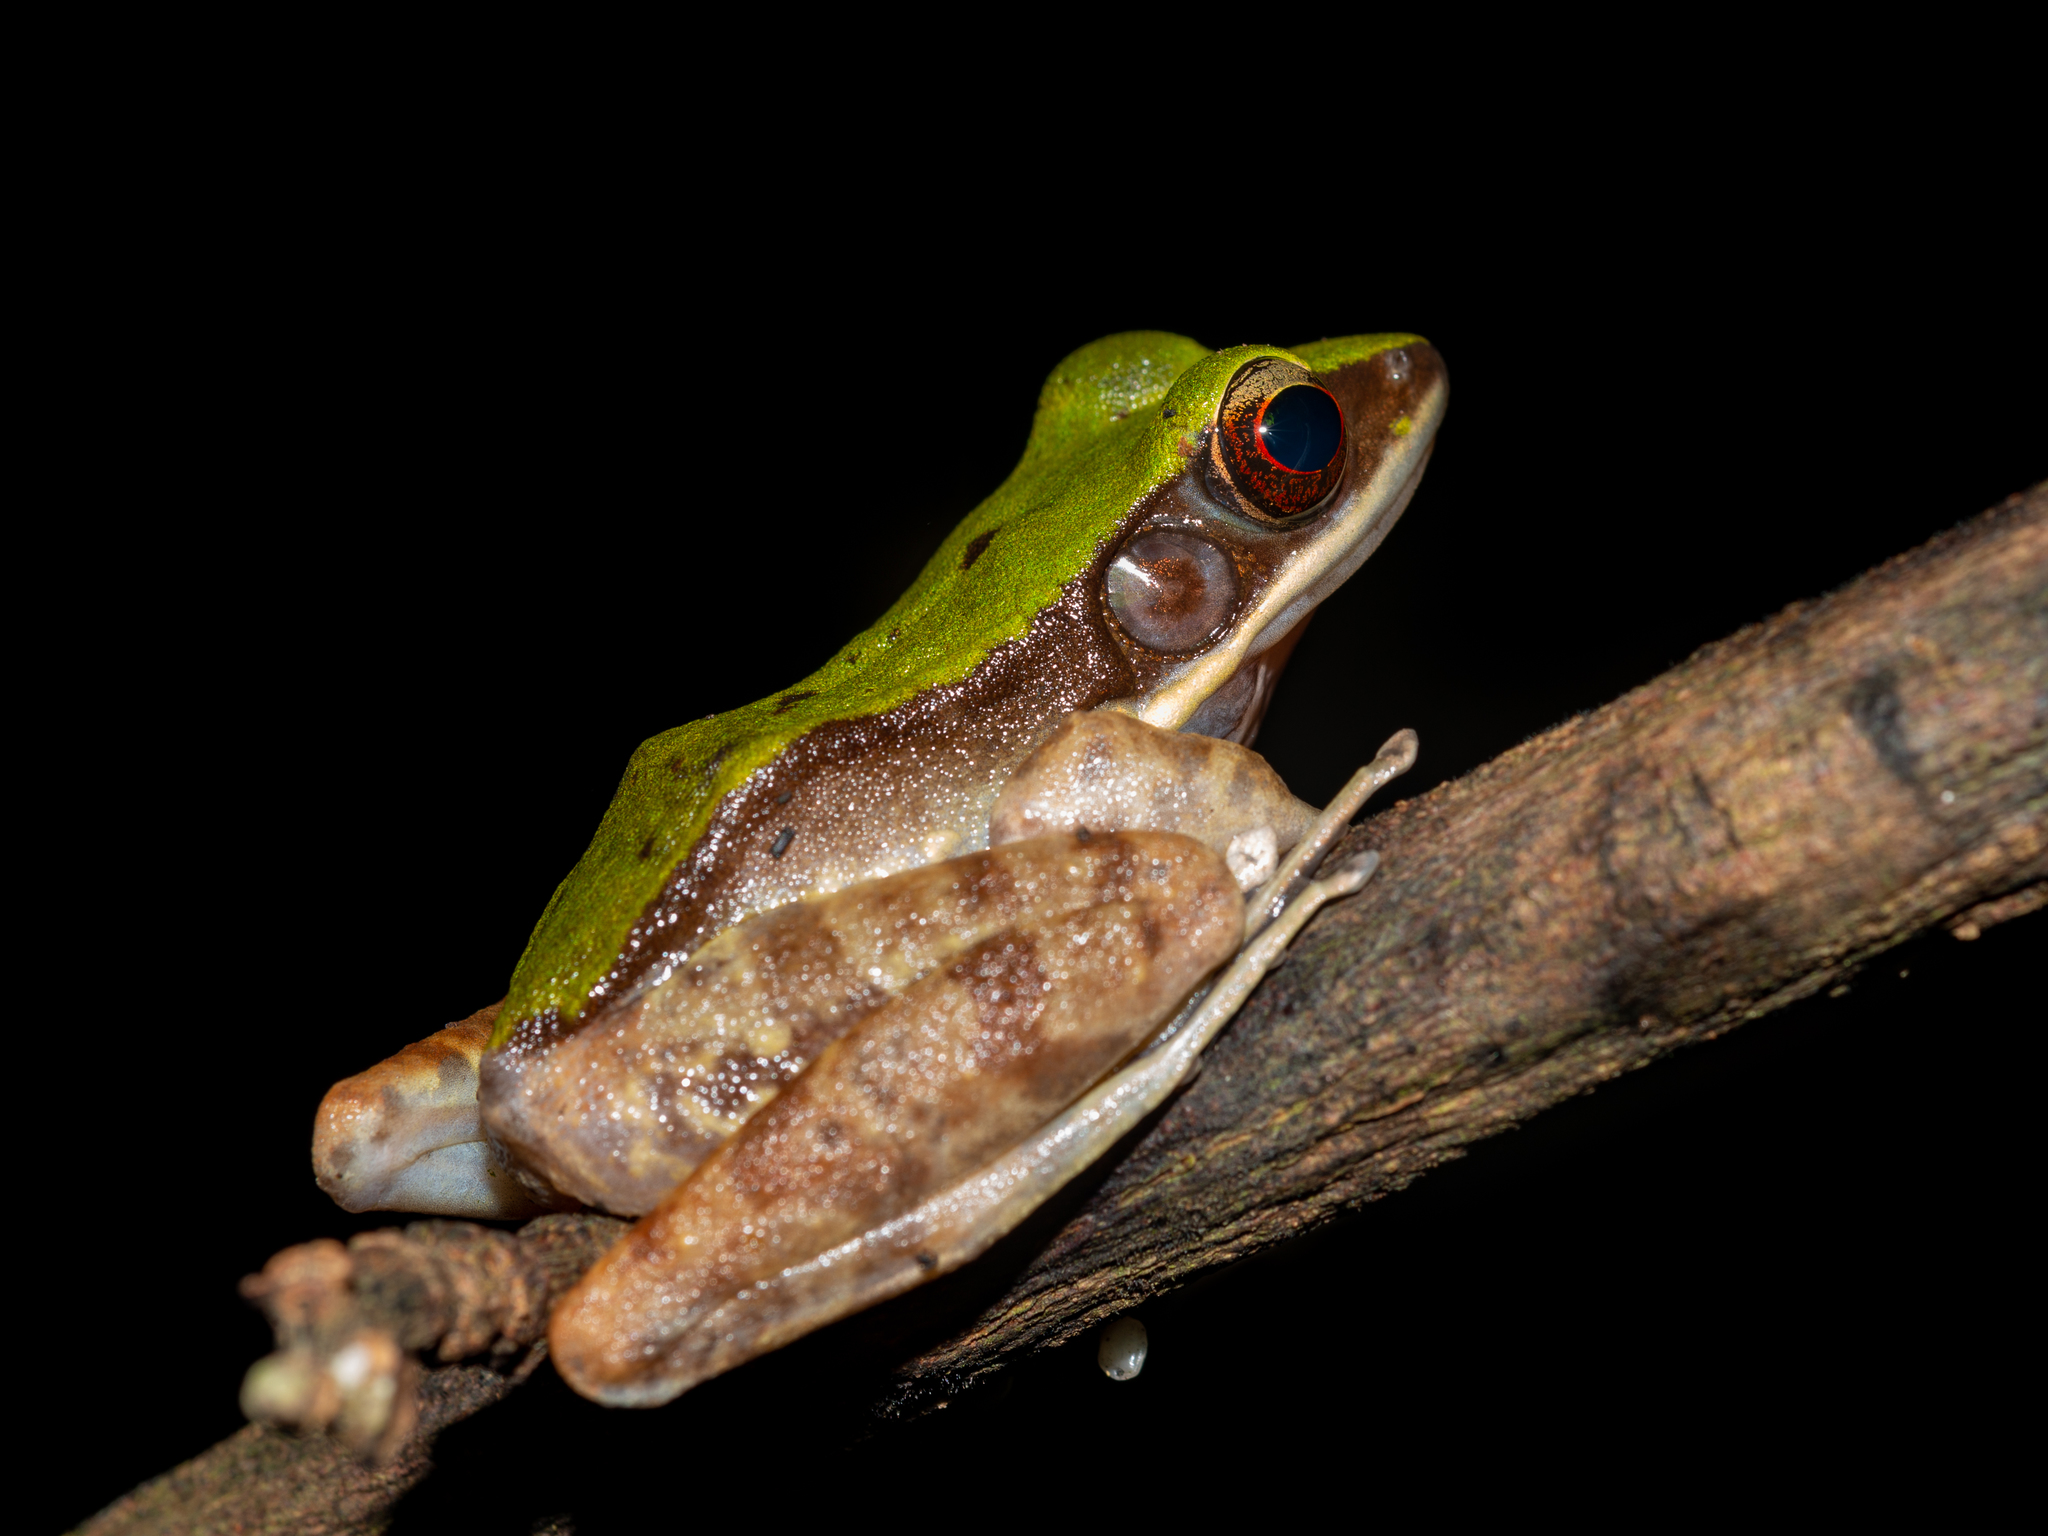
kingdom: Animalia
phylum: Chordata
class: Amphibia
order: Anura
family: Ranidae
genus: Odorrana
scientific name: Odorrana graminea
